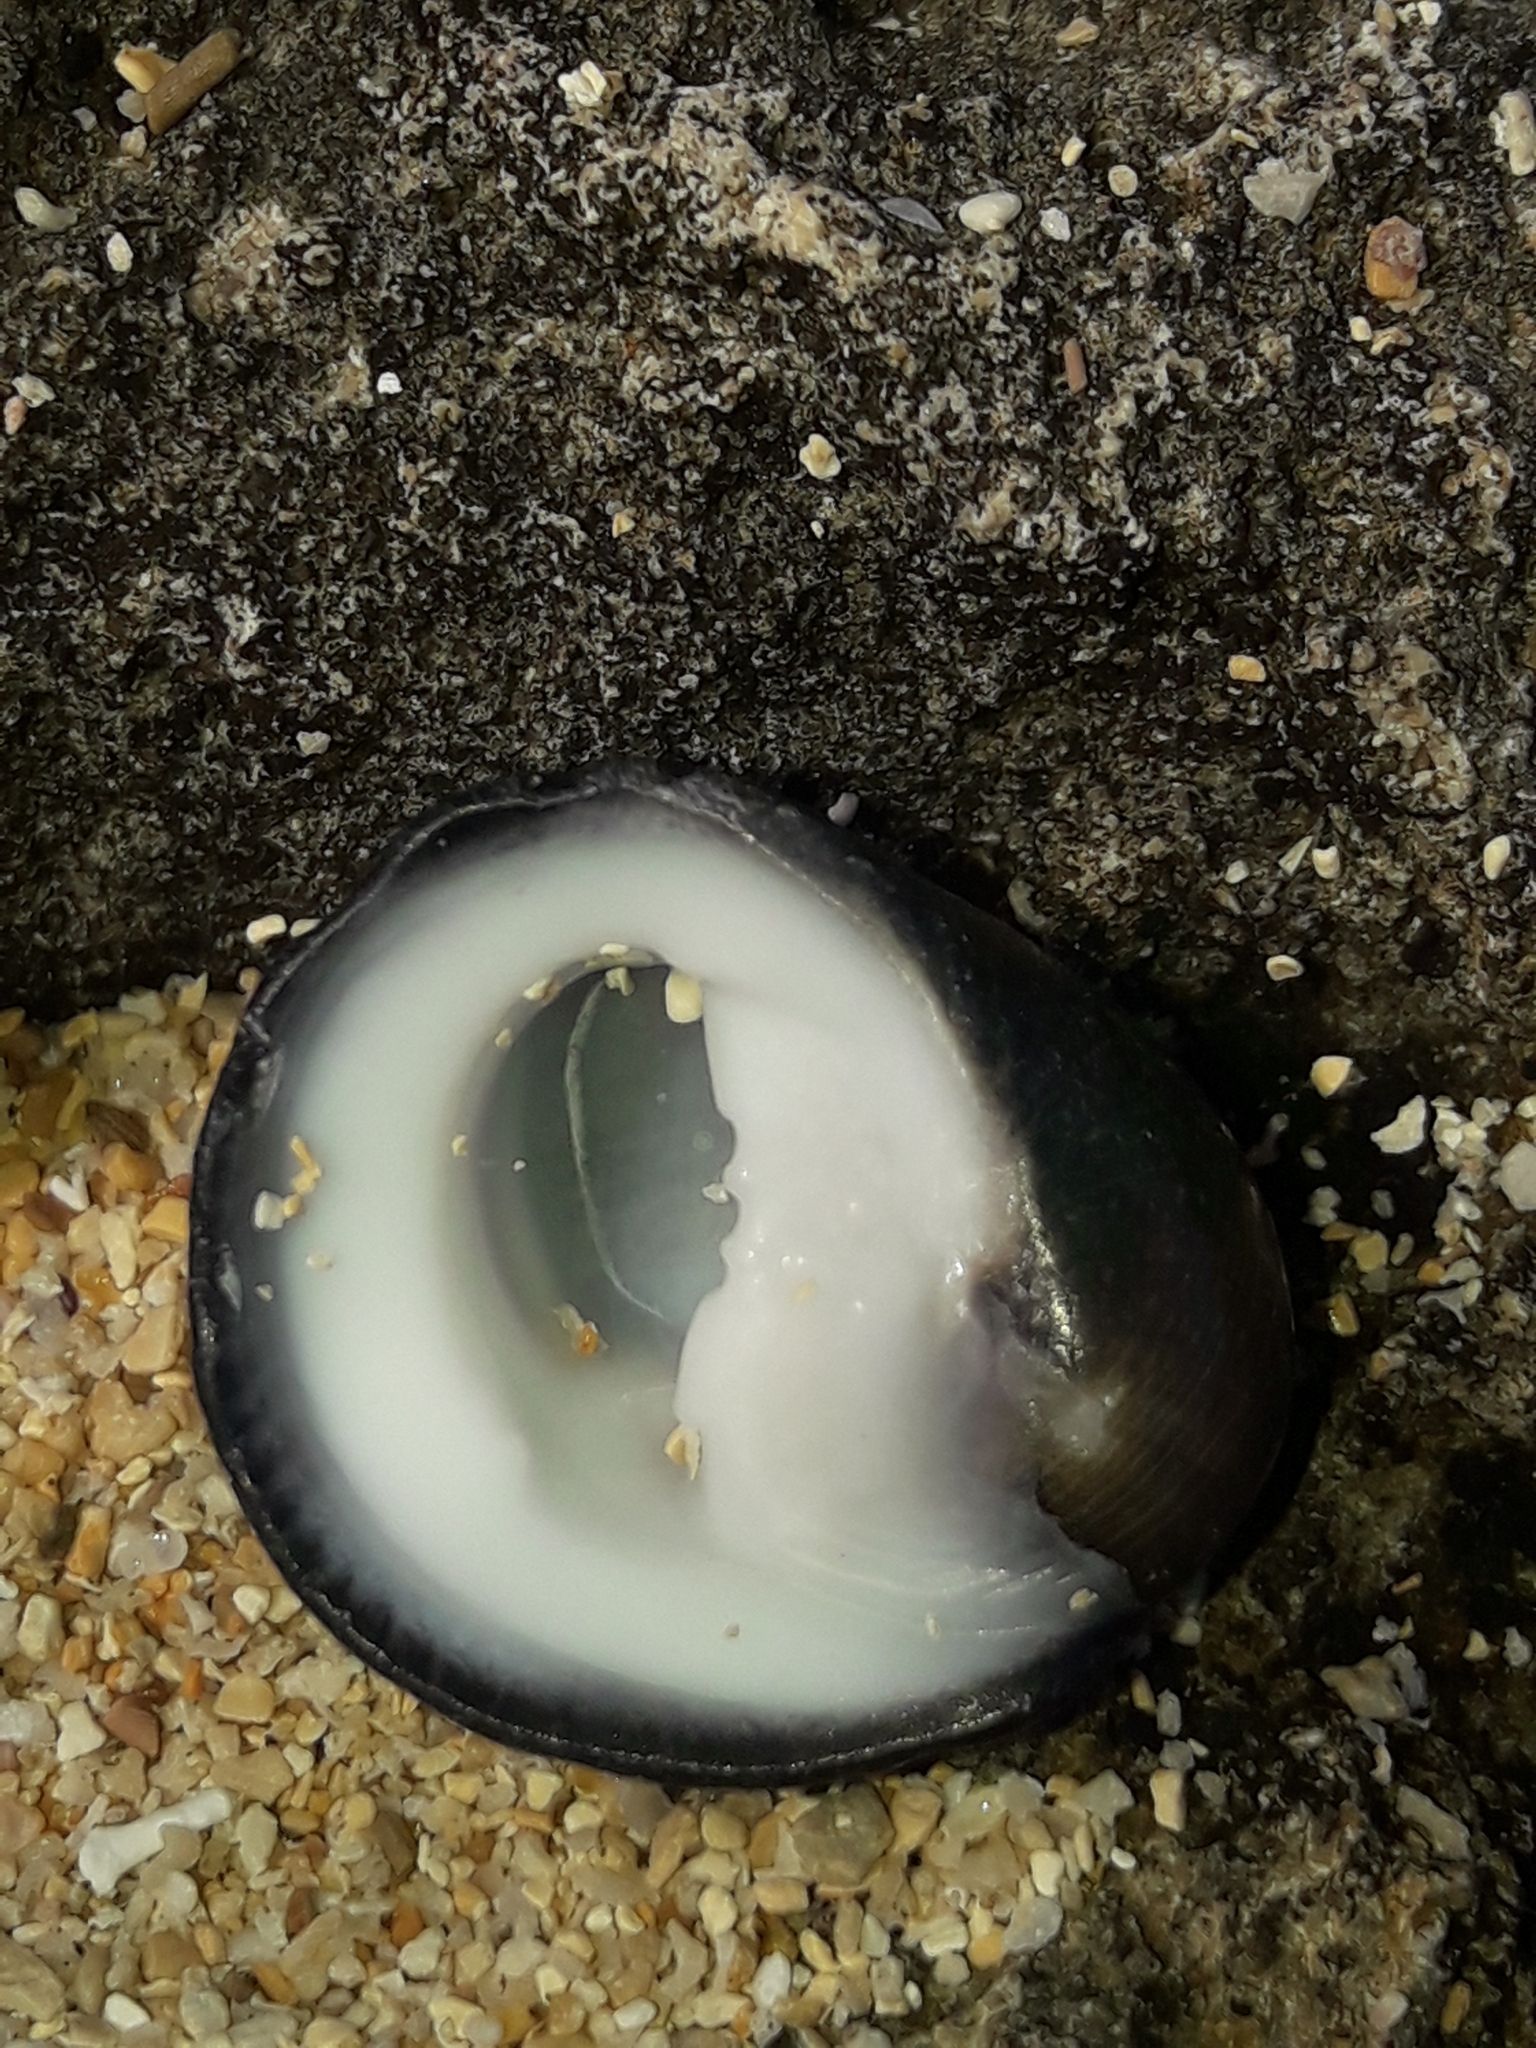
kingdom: Animalia
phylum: Mollusca
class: Gastropoda
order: Cycloneritida
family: Neritidae
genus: Nerita
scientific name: Nerita melanotragus
